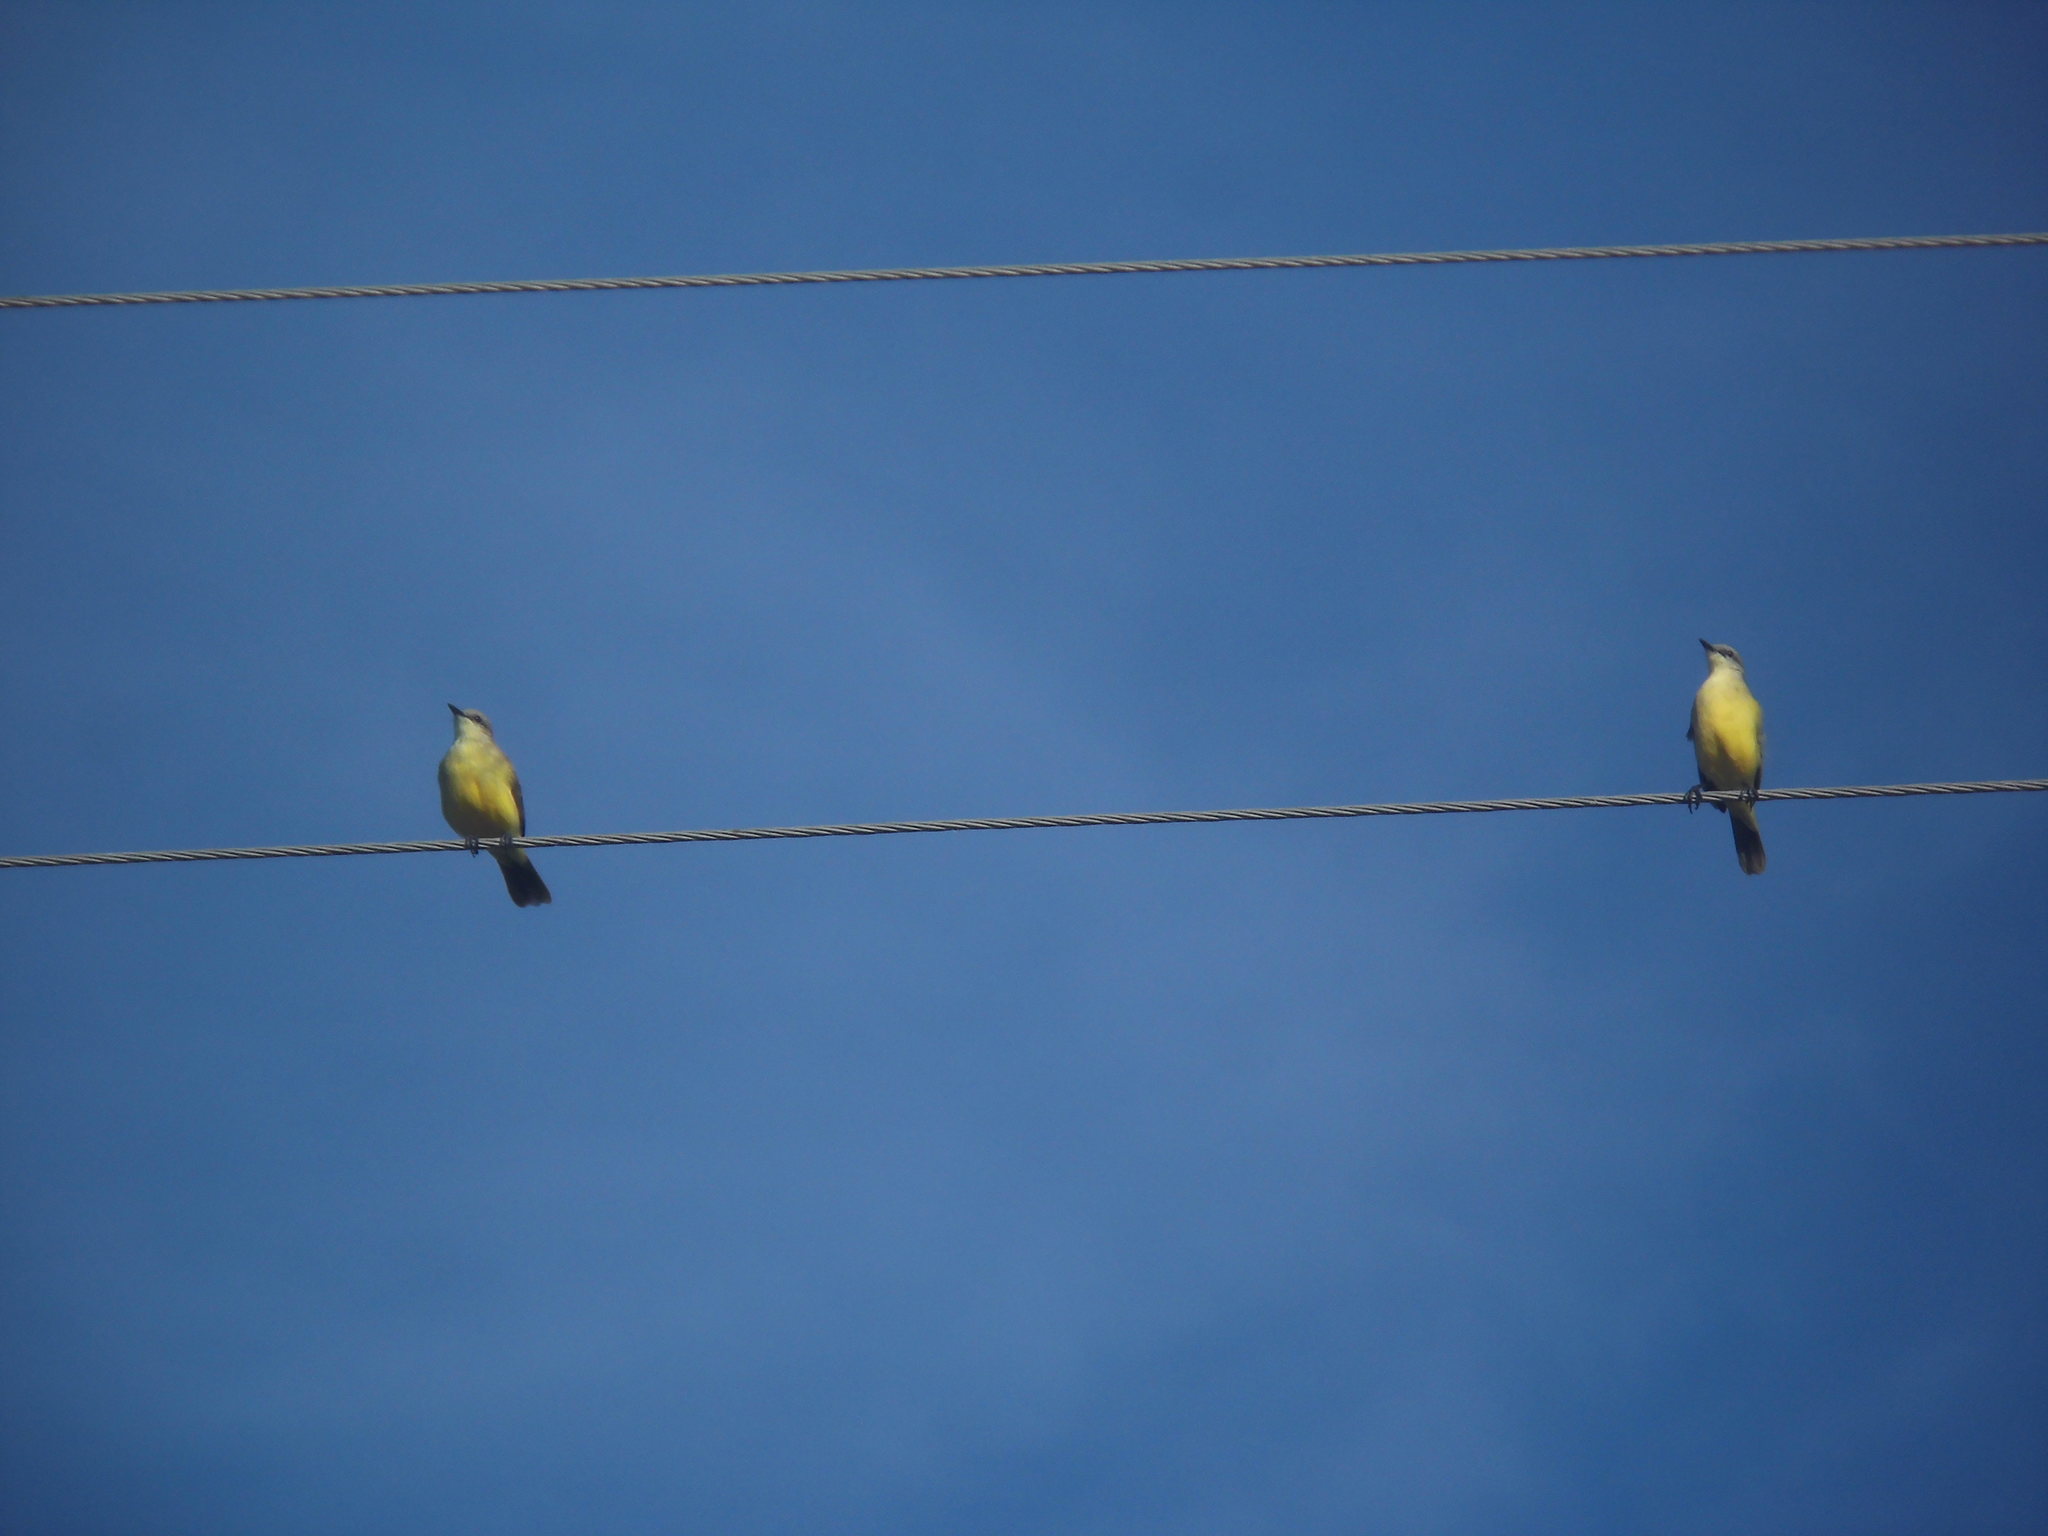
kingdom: Animalia
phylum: Chordata
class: Aves
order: Passeriformes
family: Tyrannidae
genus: Machetornis
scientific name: Machetornis rixosa
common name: Cattle tyrant
